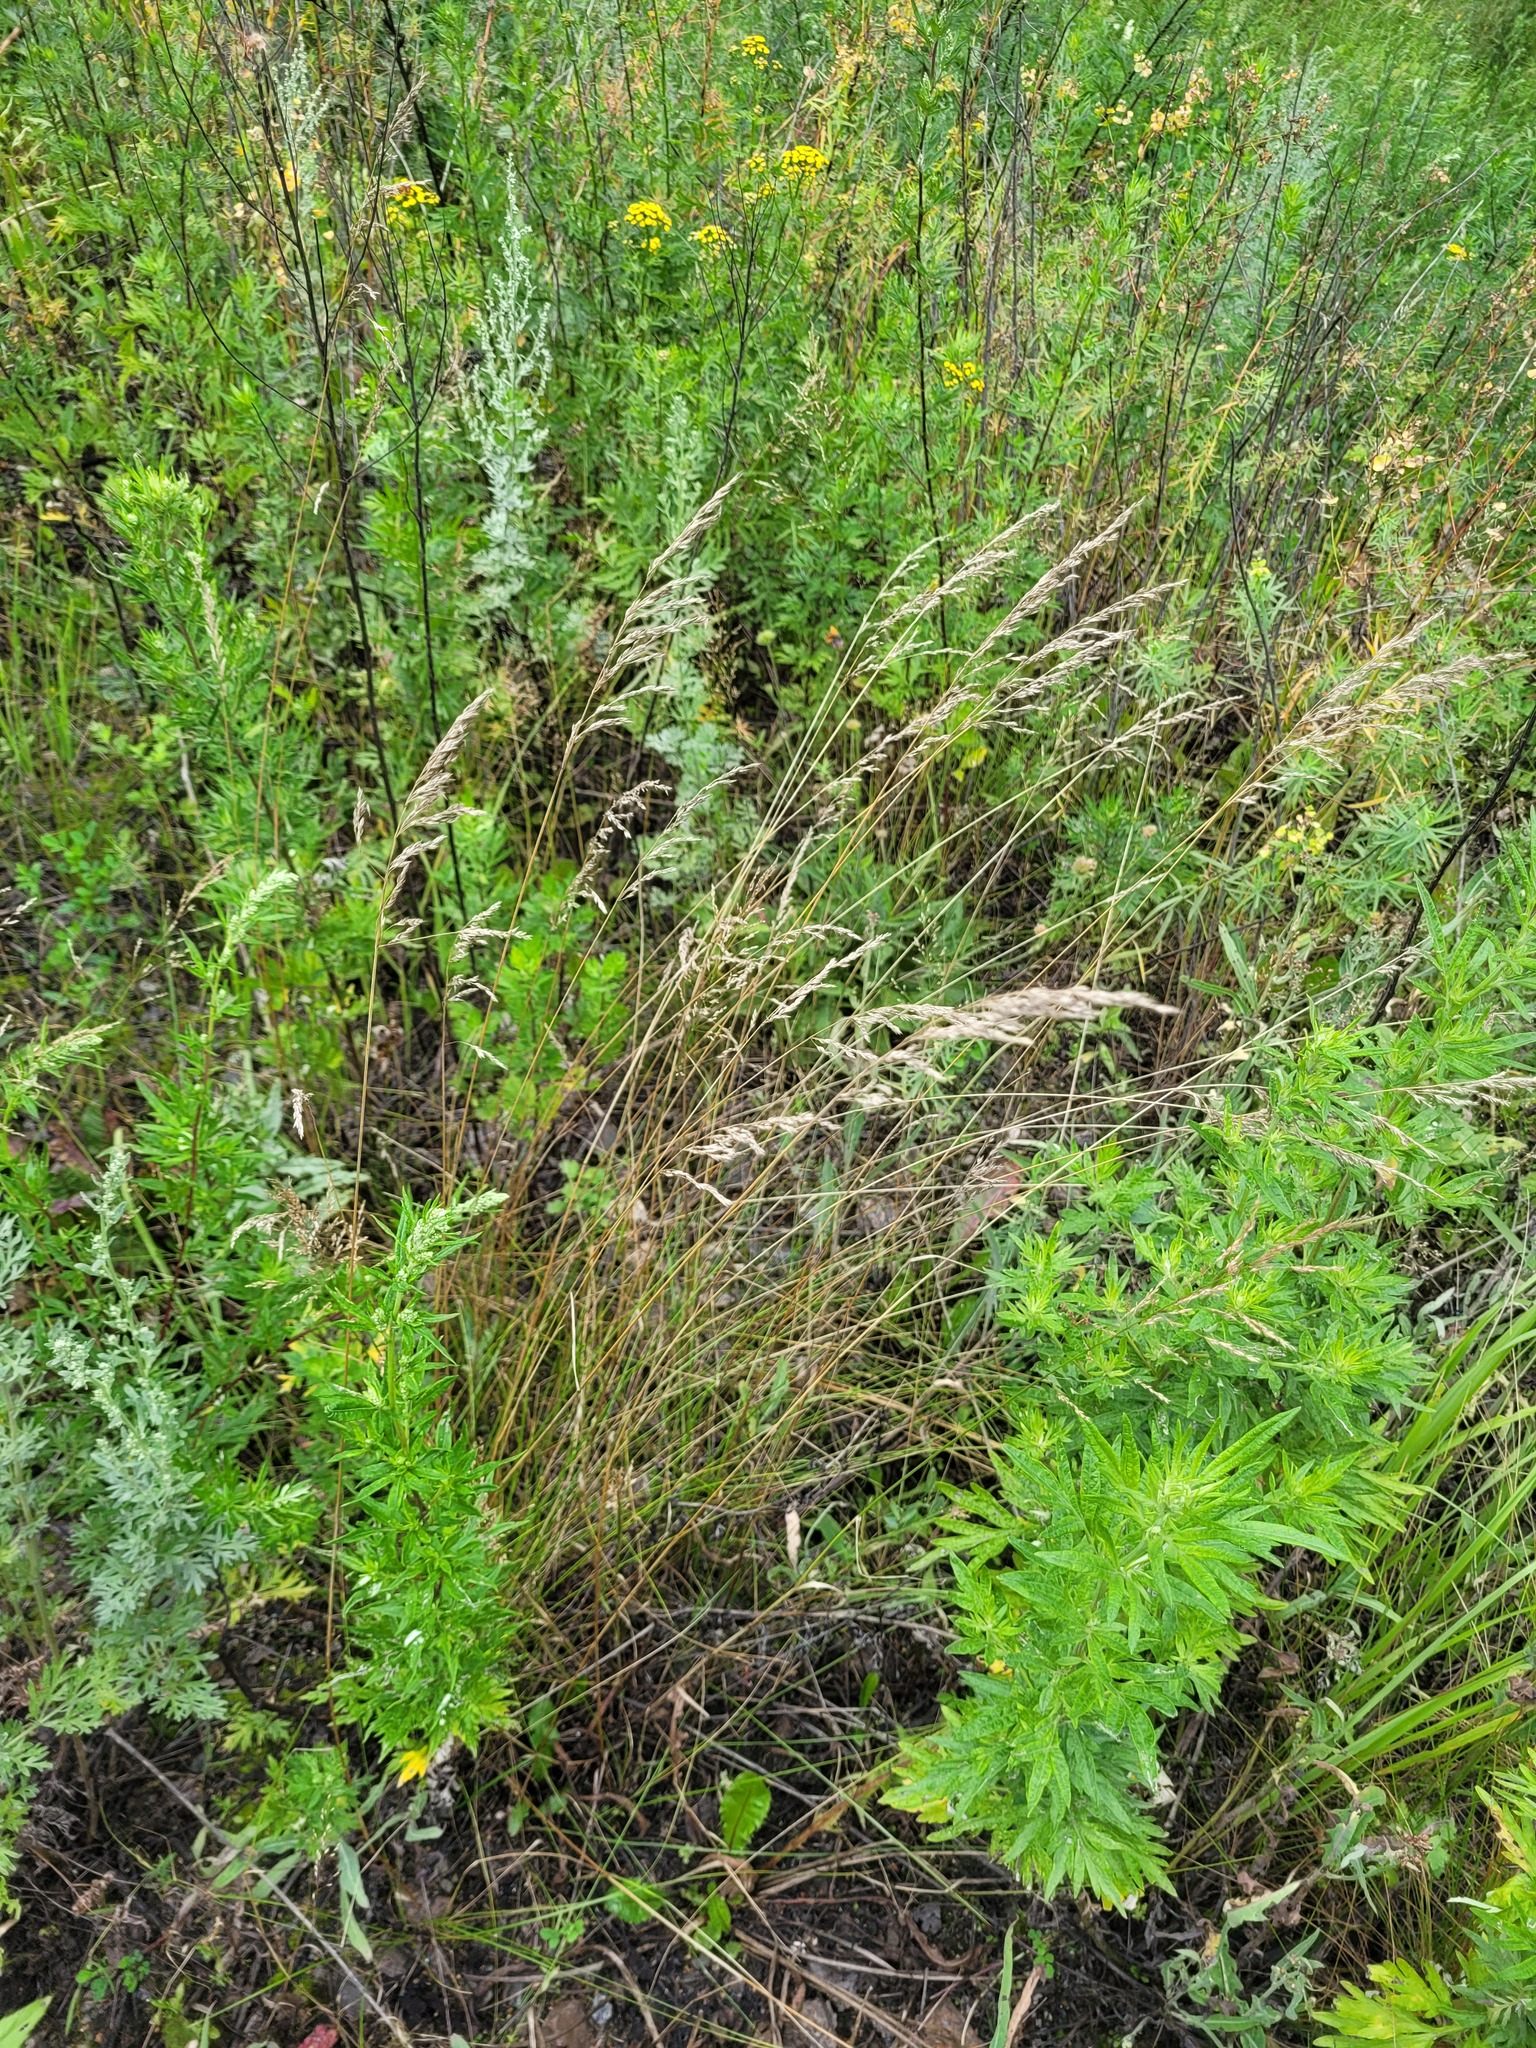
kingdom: Plantae
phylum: Tracheophyta
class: Liliopsida
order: Poales
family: Poaceae
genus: Poa
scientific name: Poa angustifolia
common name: Narrow-leaved meadow-grass
